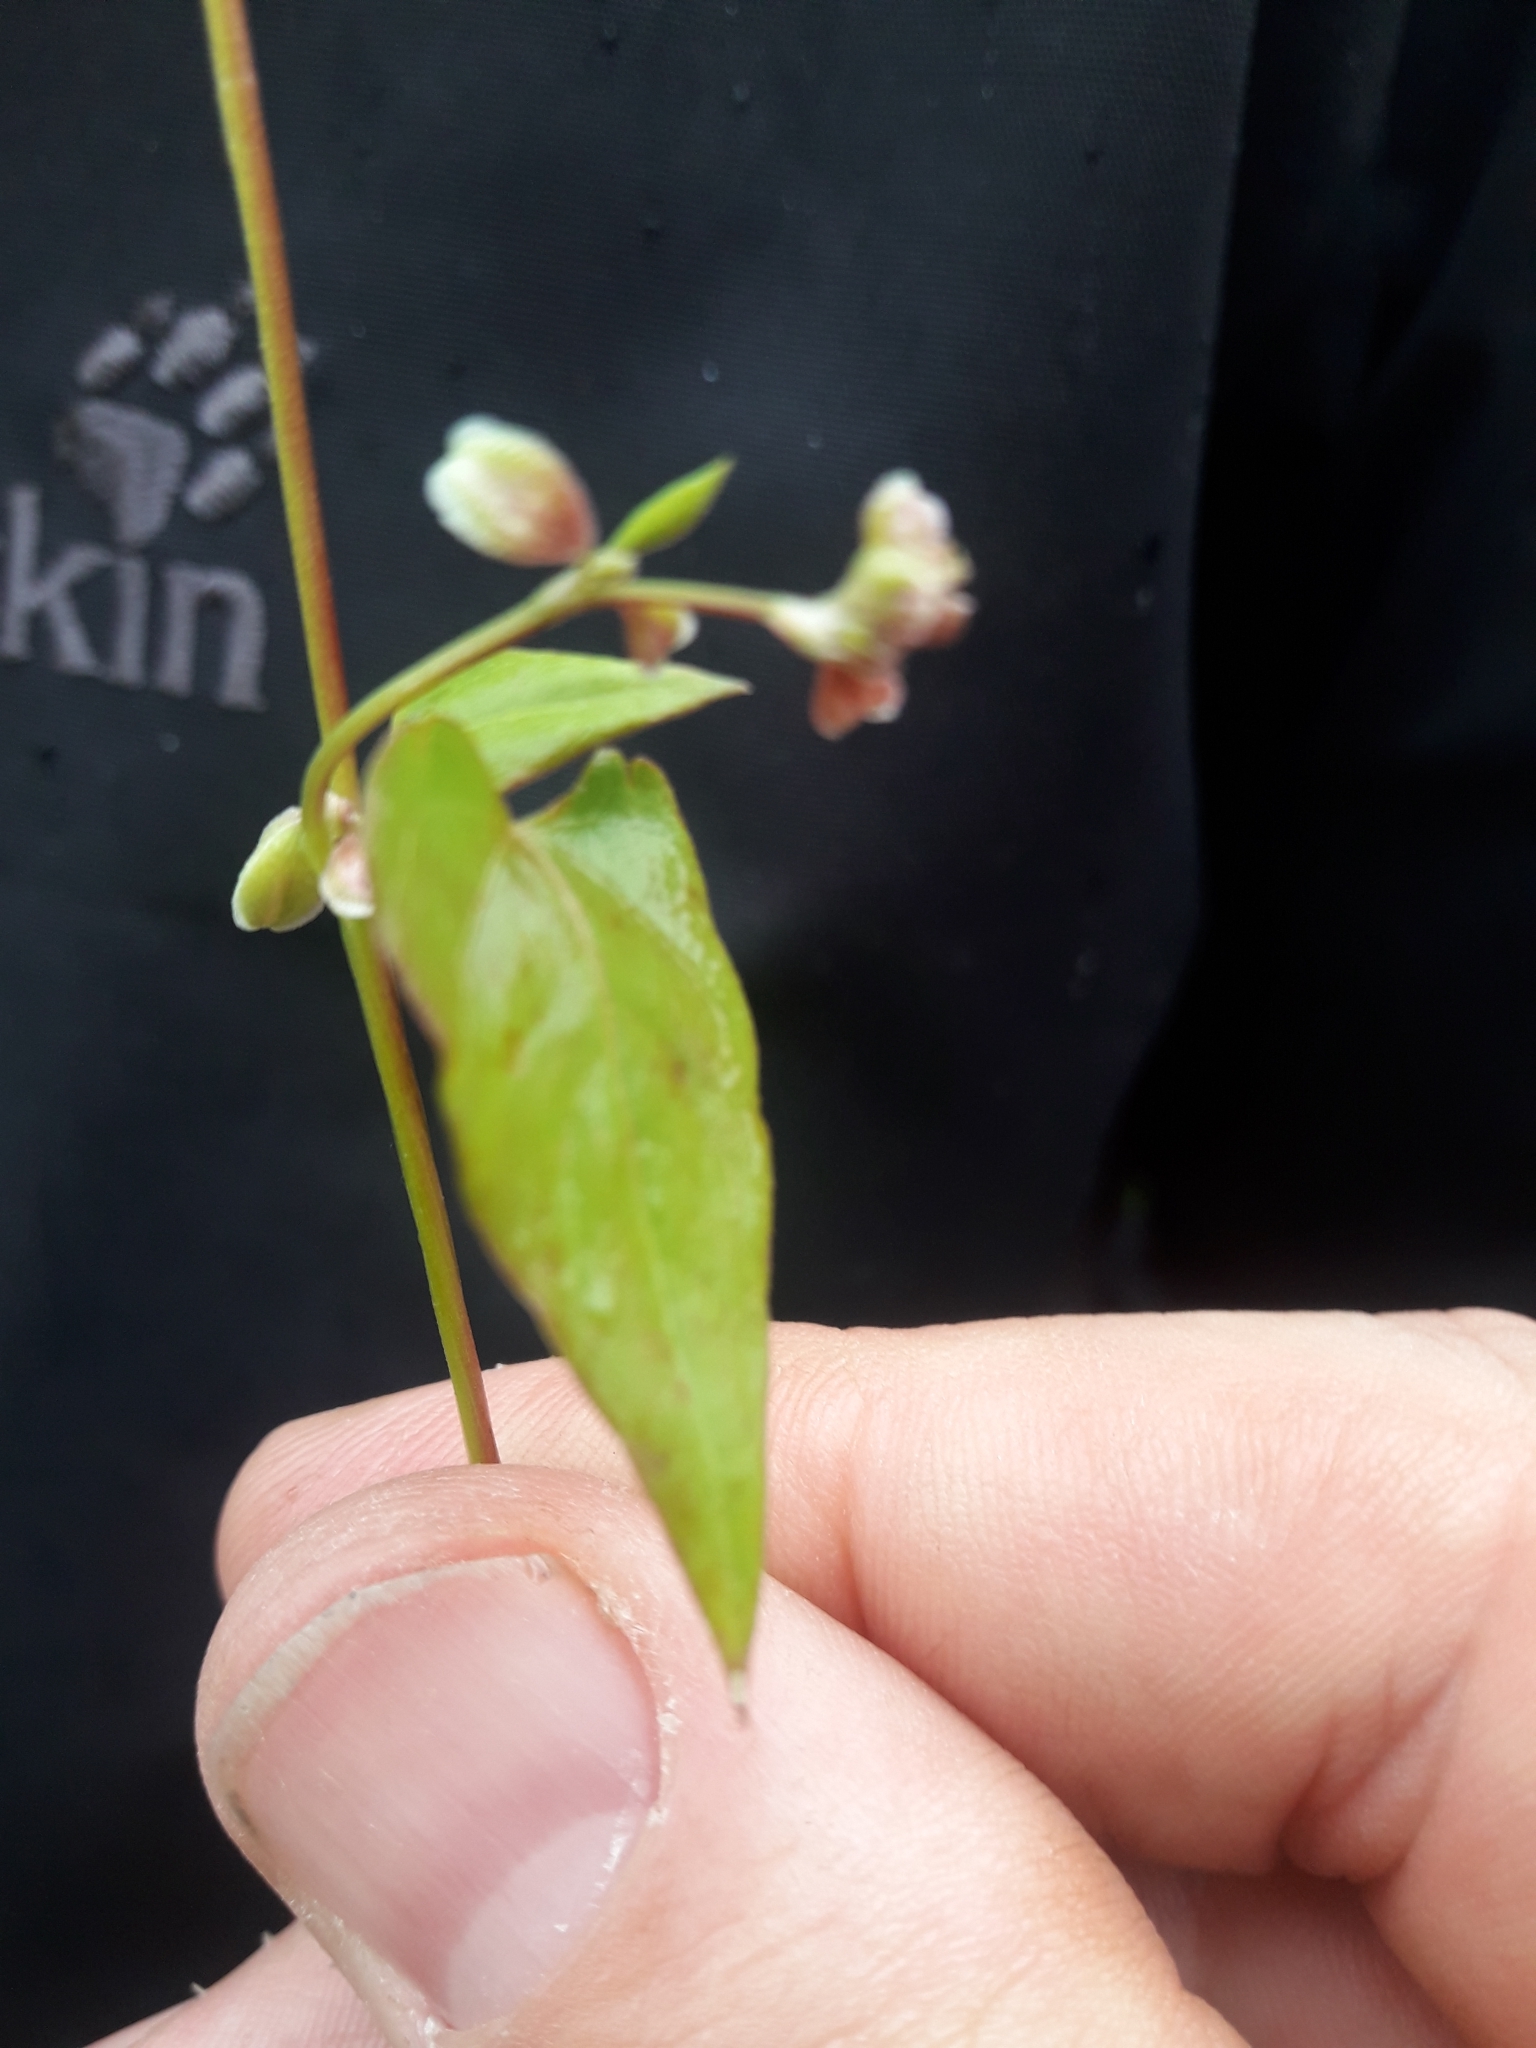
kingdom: Plantae
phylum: Tracheophyta
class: Magnoliopsida
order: Caryophyllales
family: Polygonaceae
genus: Fallopia
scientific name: Fallopia convolvulus
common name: Black bindweed
